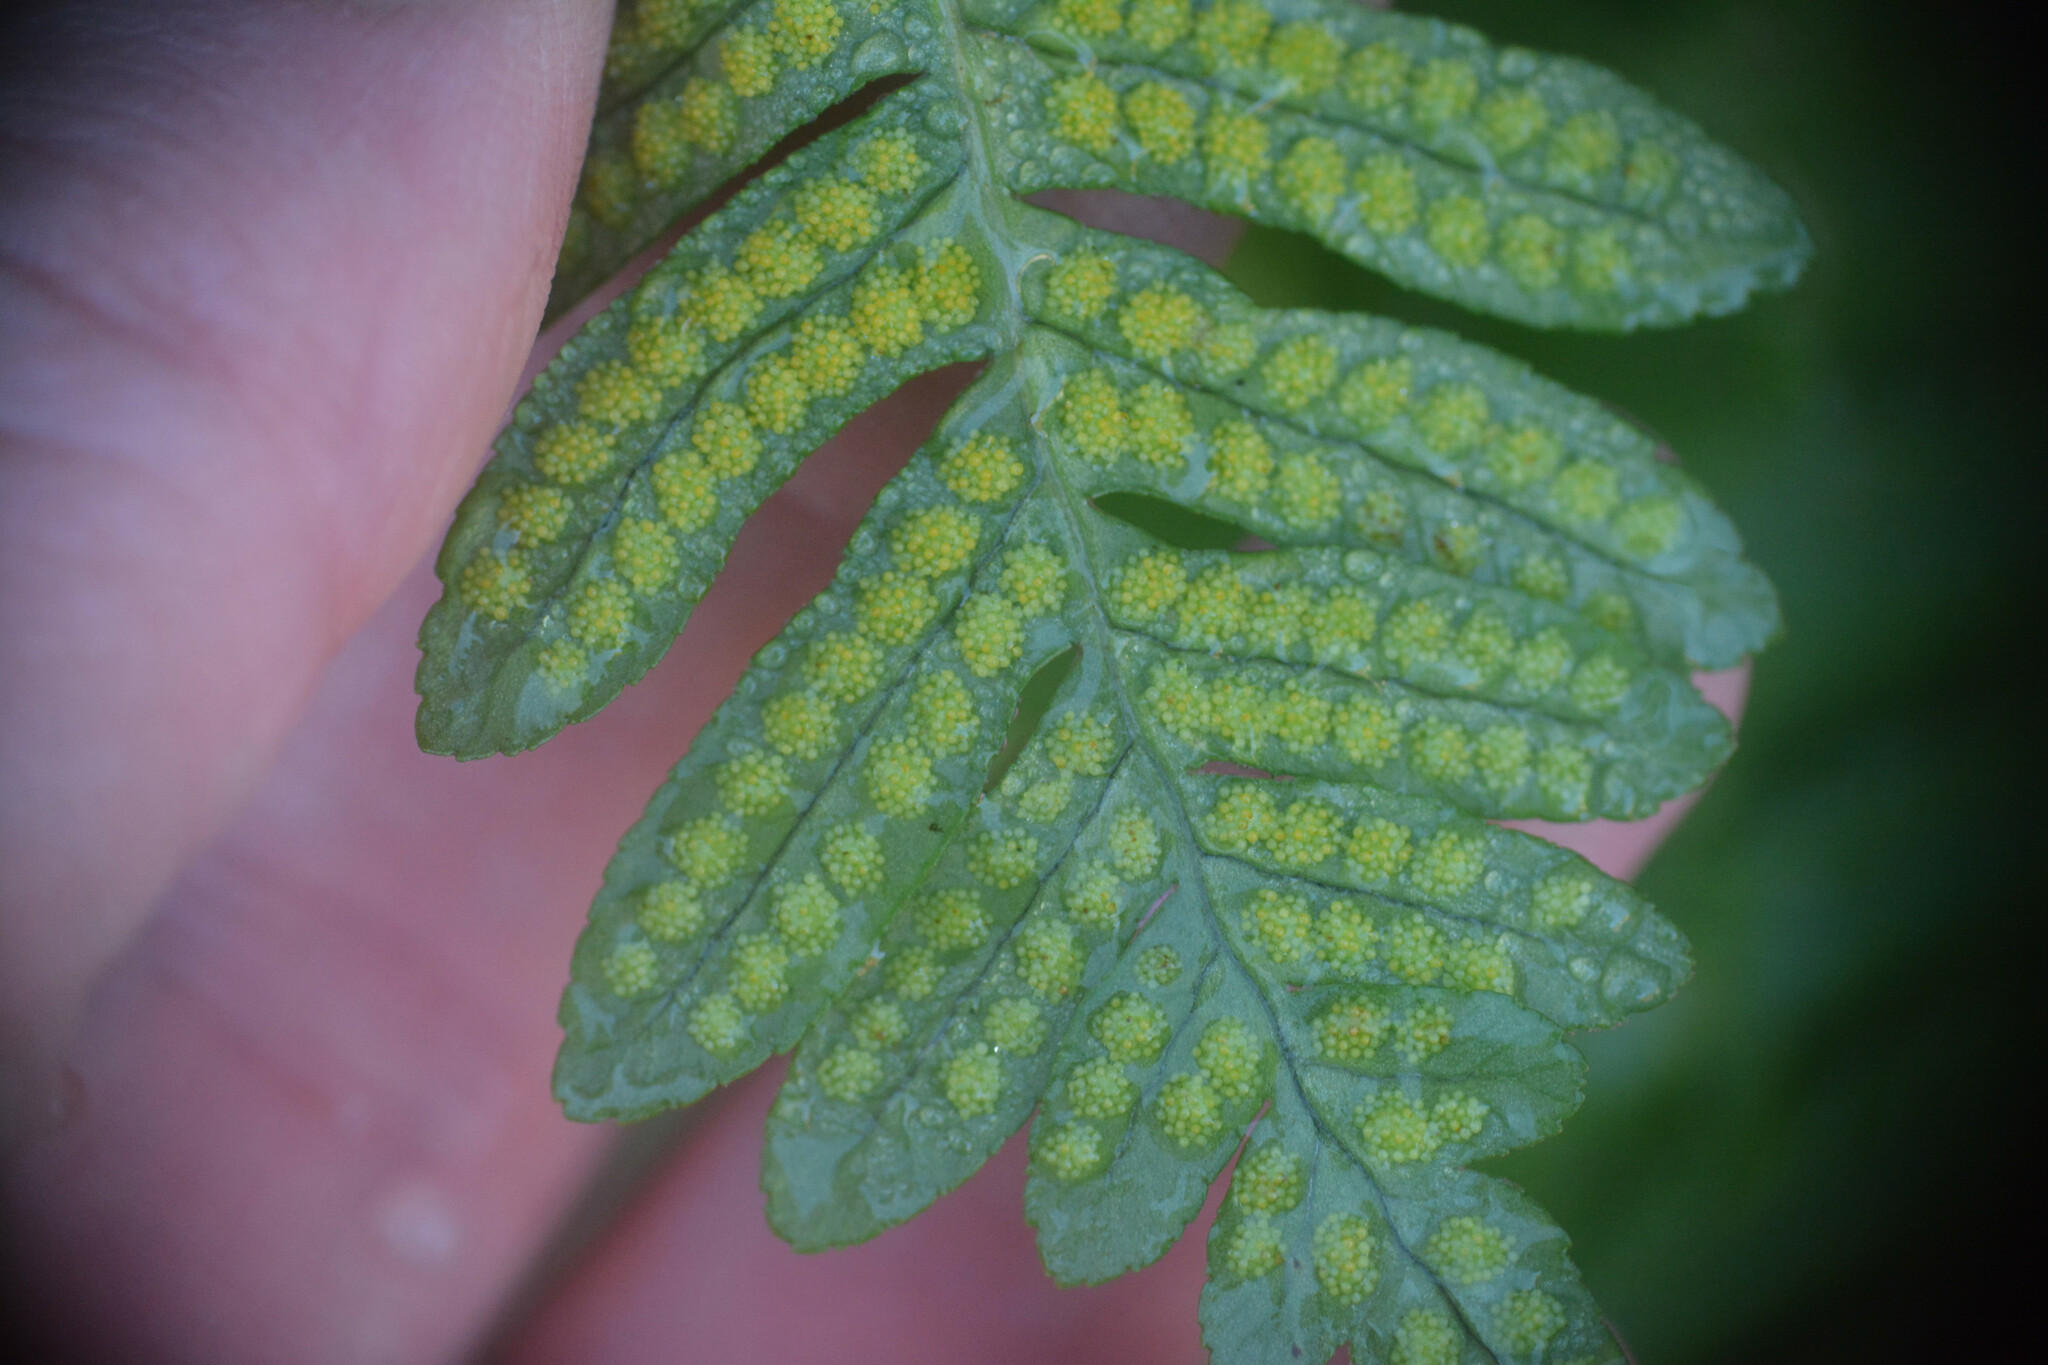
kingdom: Plantae
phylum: Tracheophyta
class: Polypodiopsida
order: Polypodiales
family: Polypodiaceae
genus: Polypodium
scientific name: Polypodium
